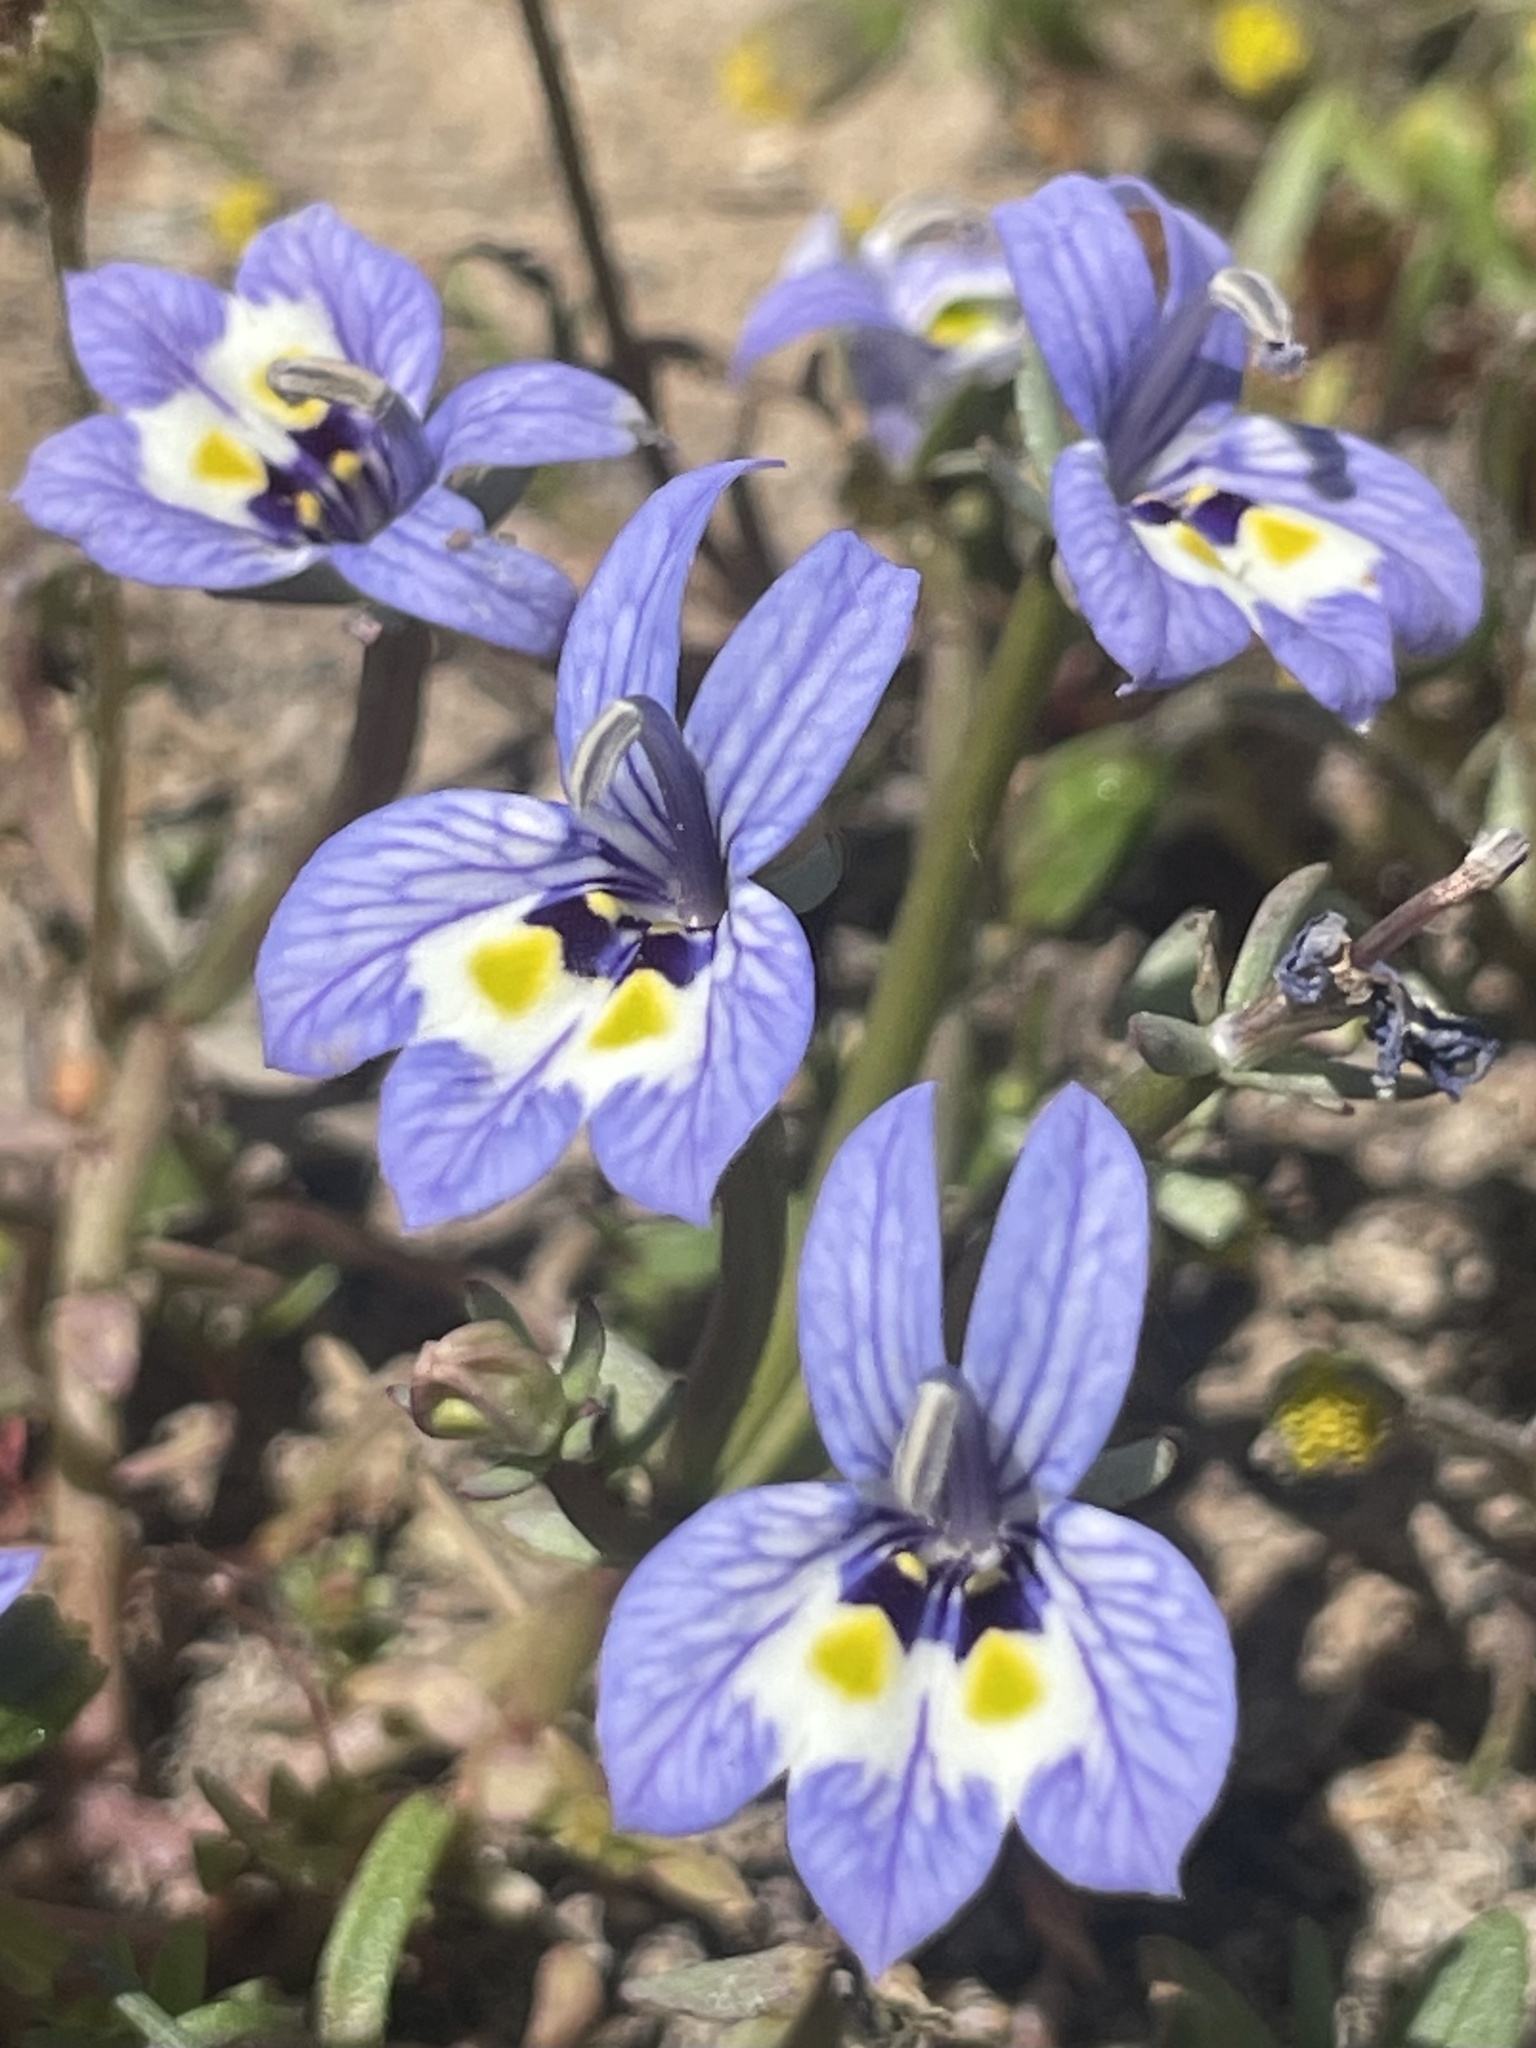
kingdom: Plantae
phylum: Tracheophyta
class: Magnoliopsida
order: Asterales
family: Campanulaceae
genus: Downingia
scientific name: Downingia insignis
